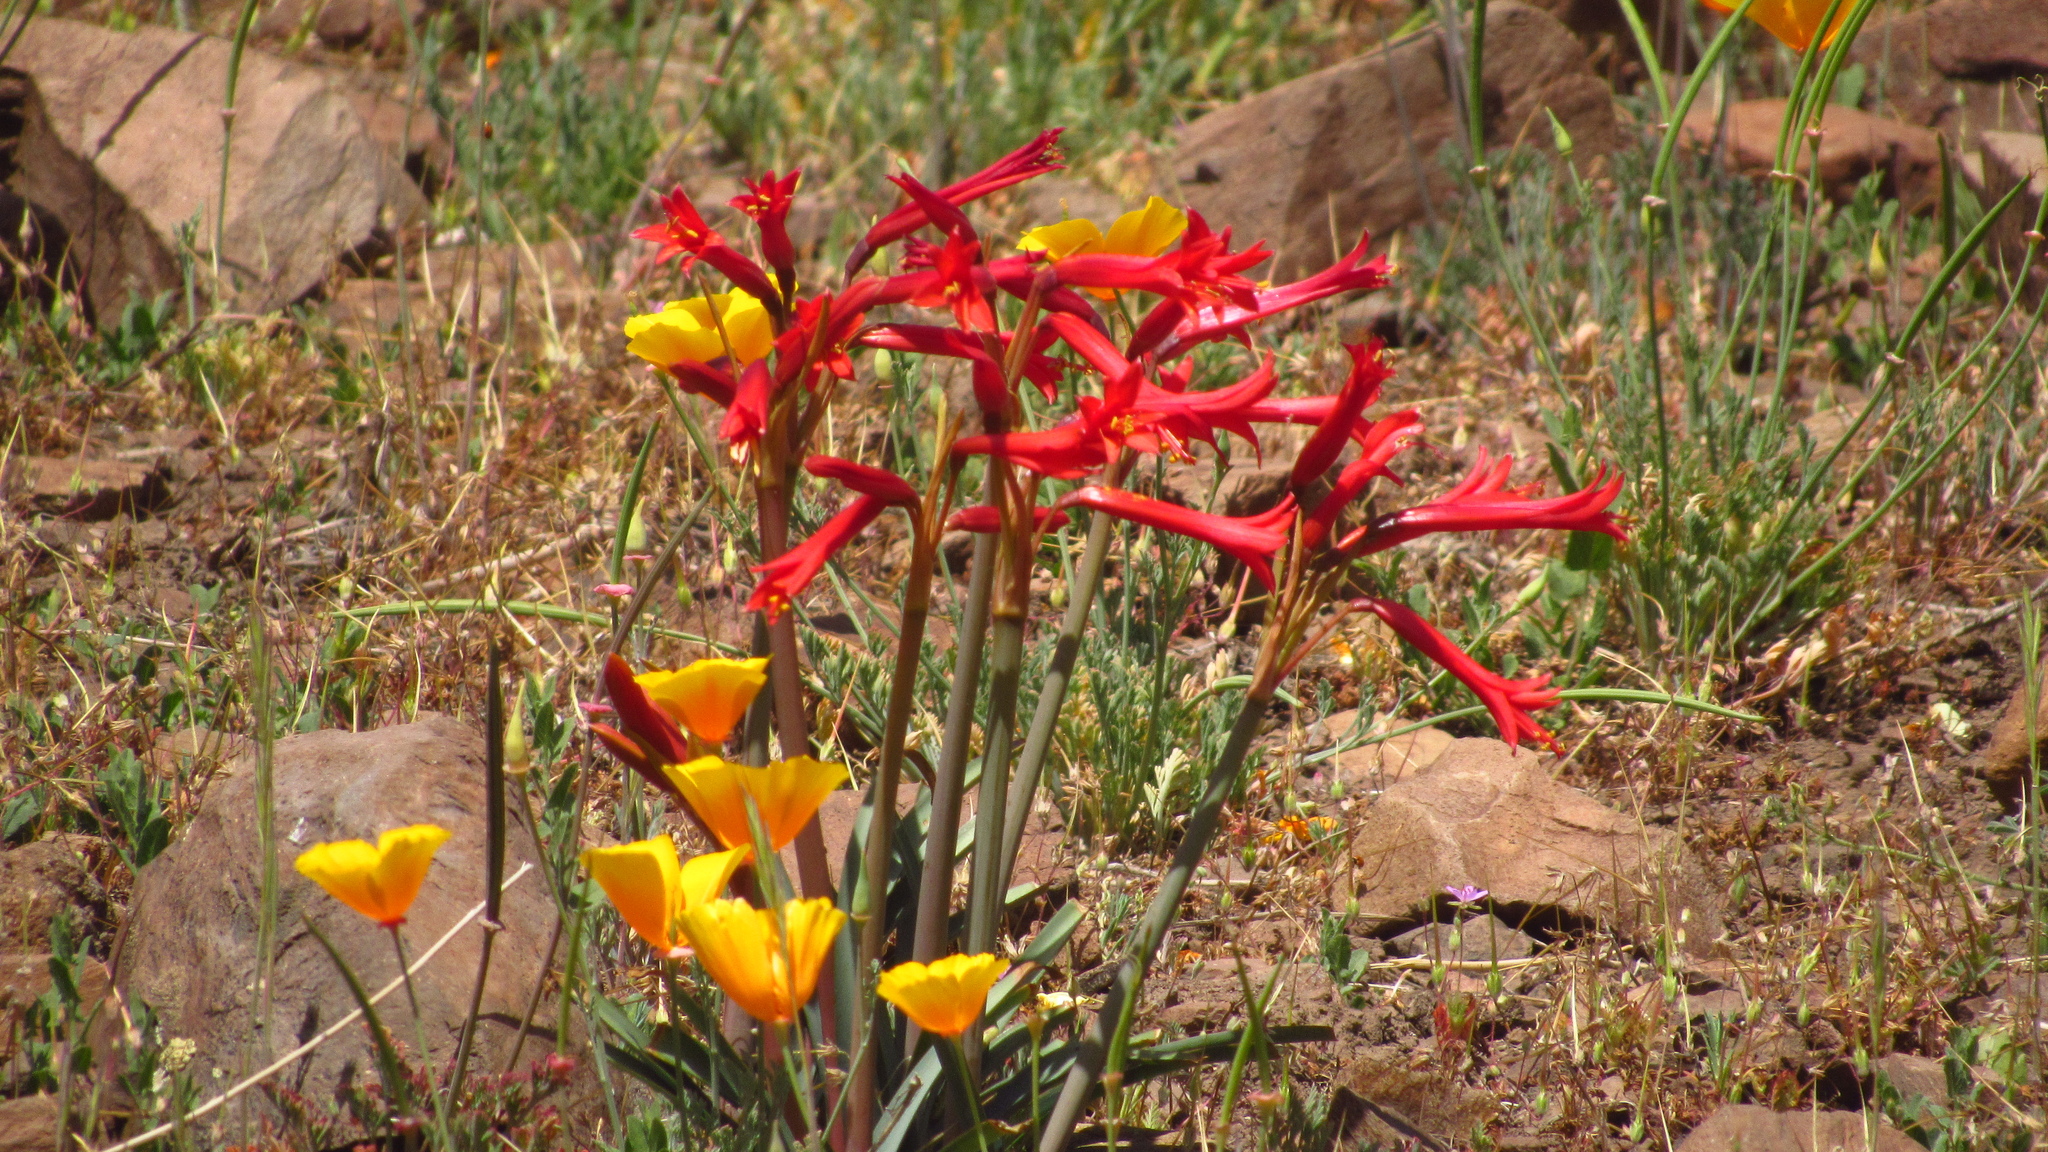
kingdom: Plantae
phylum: Tracheophyta
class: Liliopsida
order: Asparagales
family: Amaryllidaceae
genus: Phycella
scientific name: Phycella cyrtanthoides
